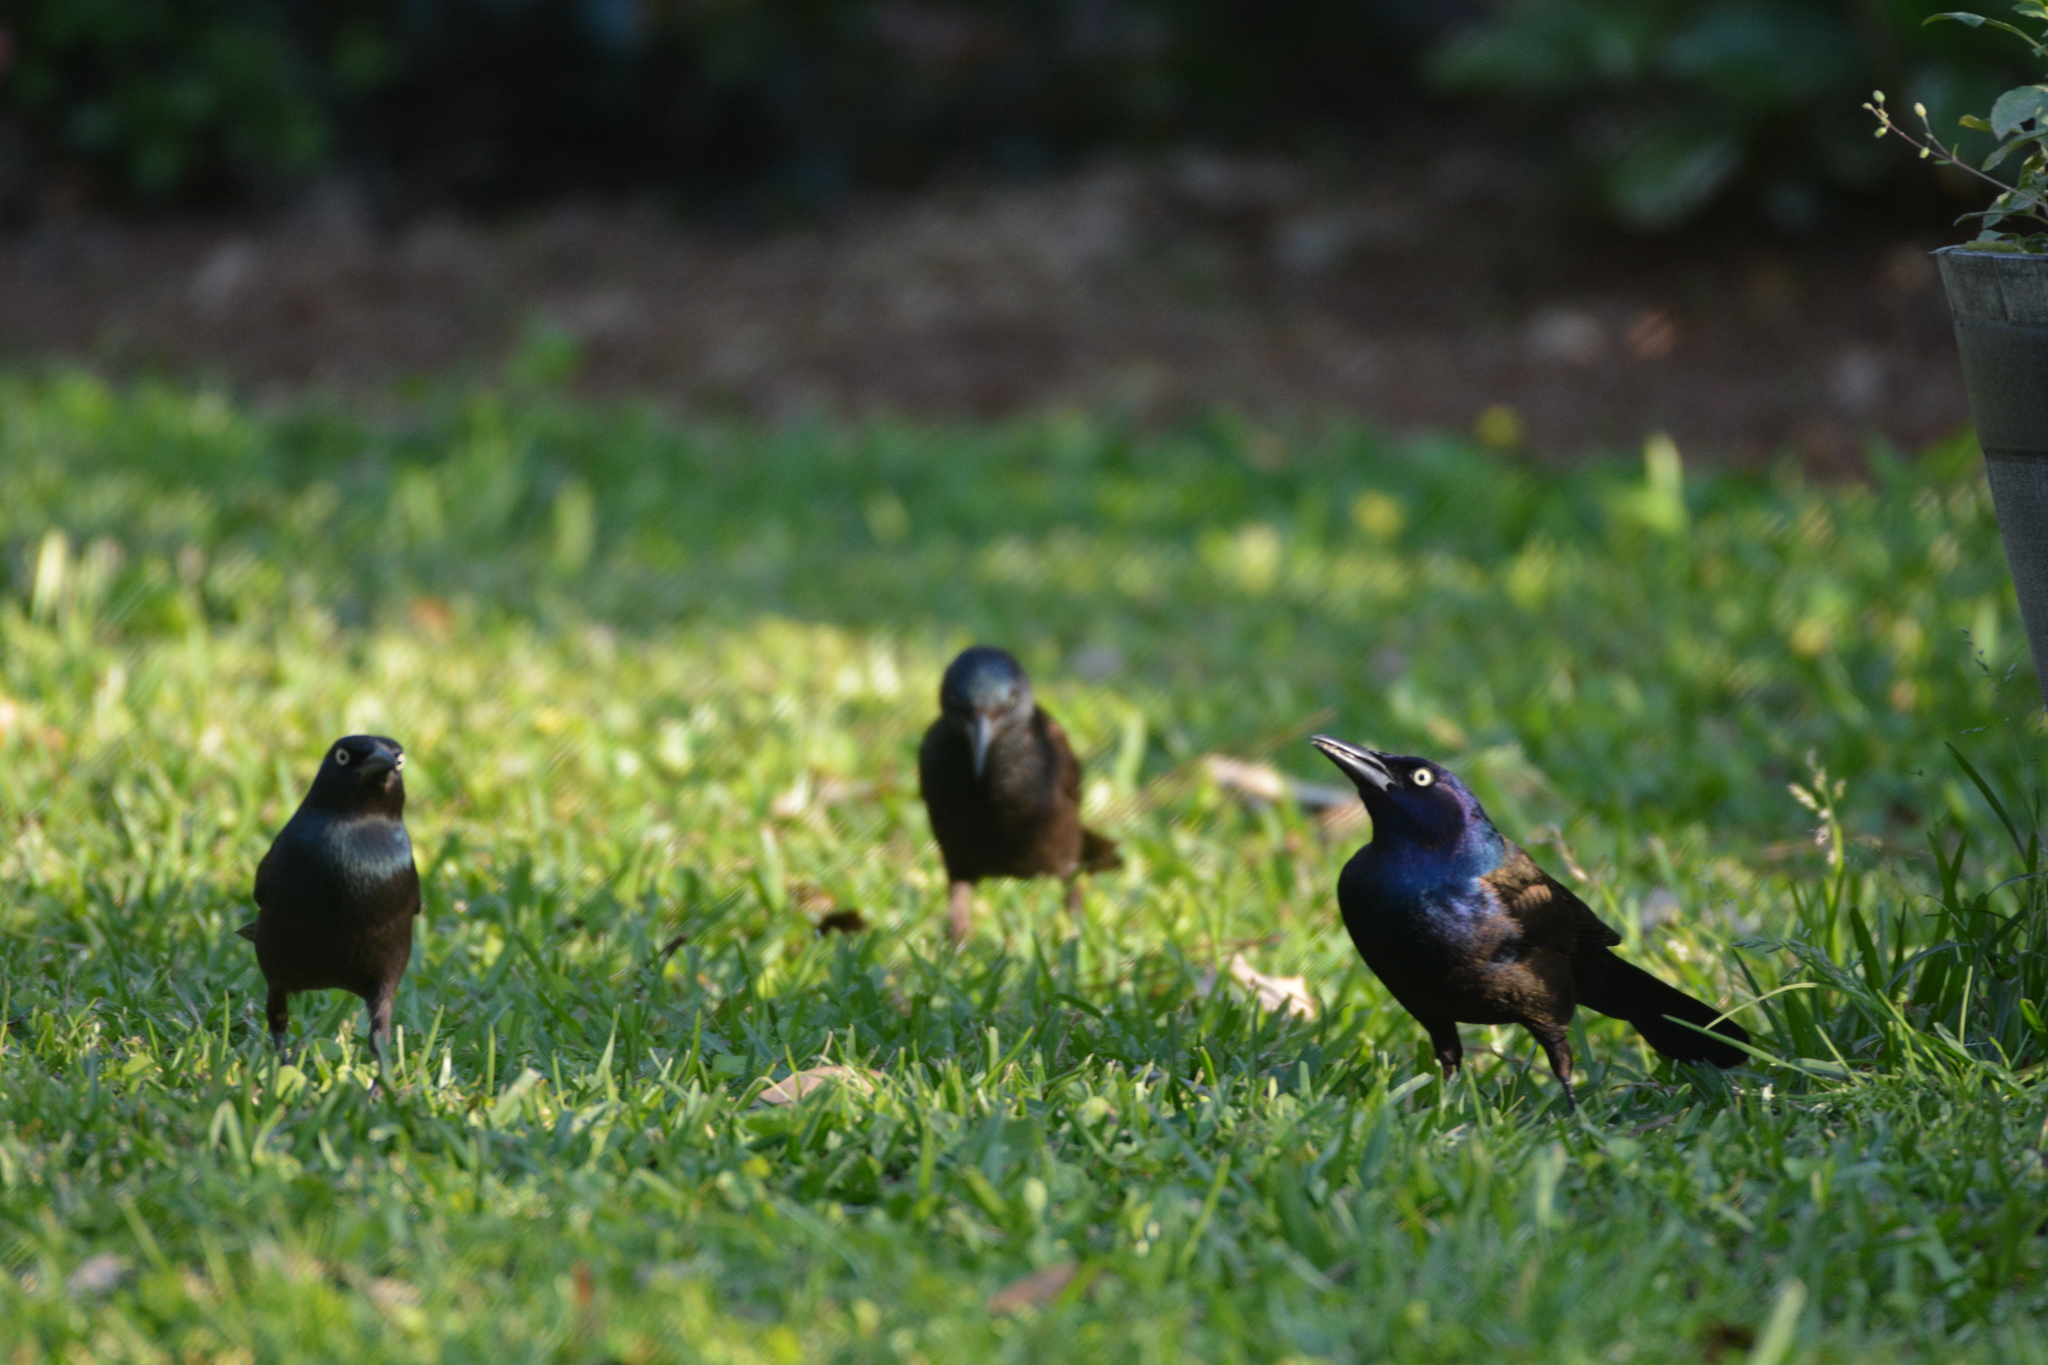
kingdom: Animalia
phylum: Chordata
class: Aves
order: Passeriformes
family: Icteridae
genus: Quiscalus
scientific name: Quiscalus quiscula
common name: Common grackle
